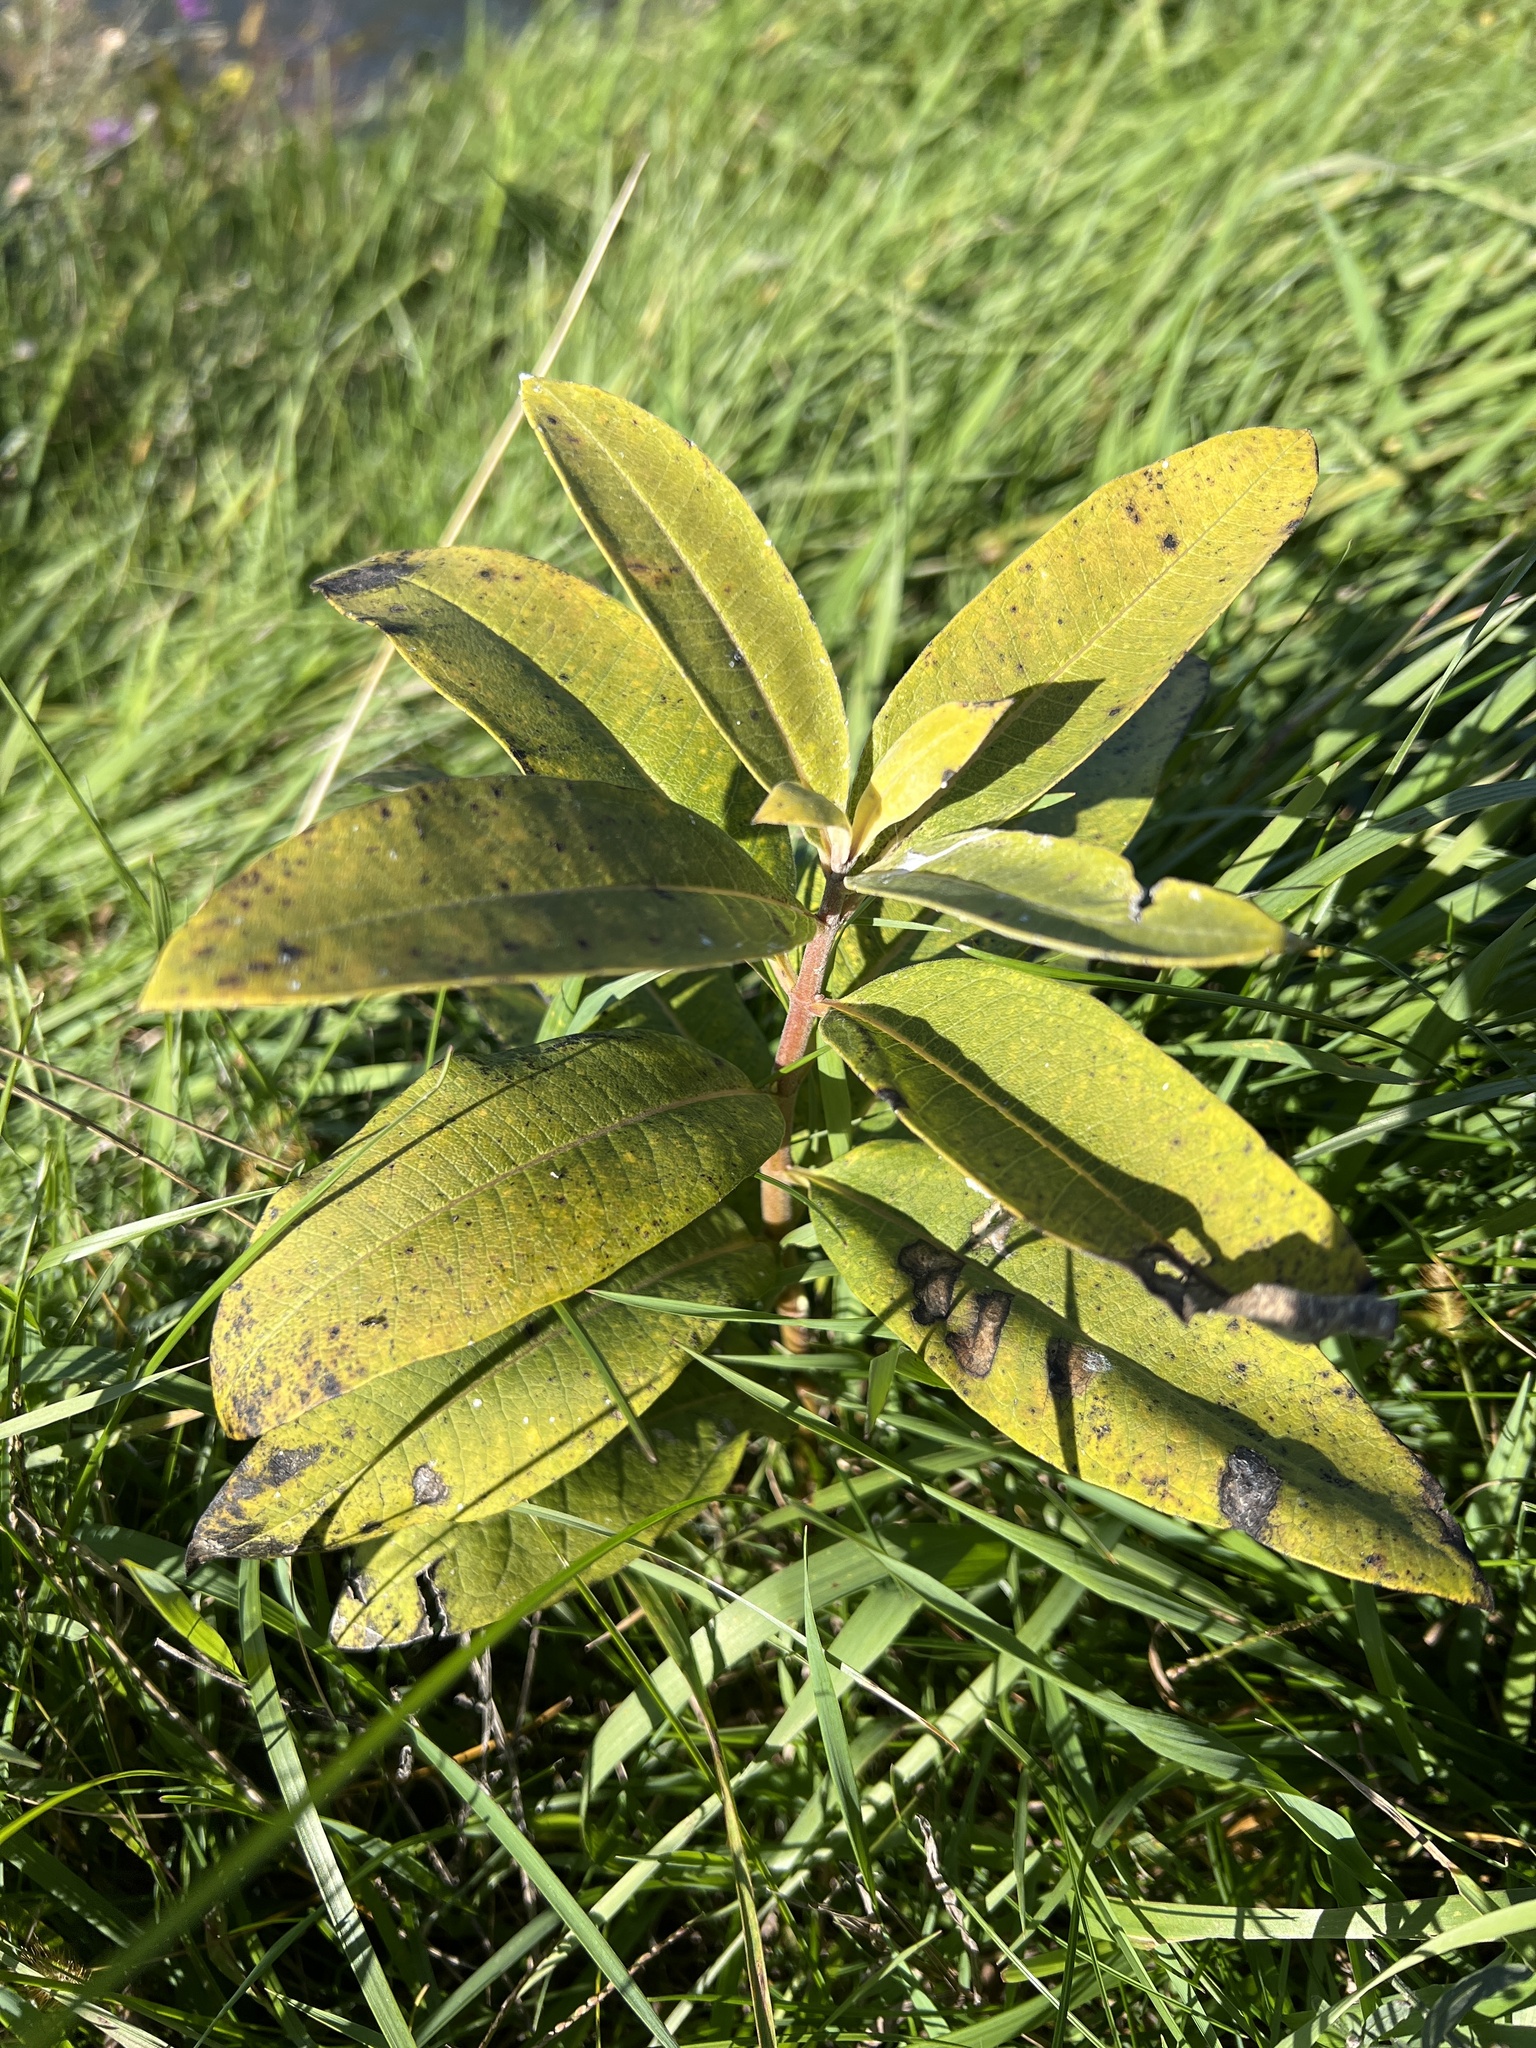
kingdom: Plantae
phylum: Tracheophyta
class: Magnoliopsida
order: Gentianales
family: Apocynaceae
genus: Asclepias
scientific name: Asclepias syriaca
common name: Common milkweed
